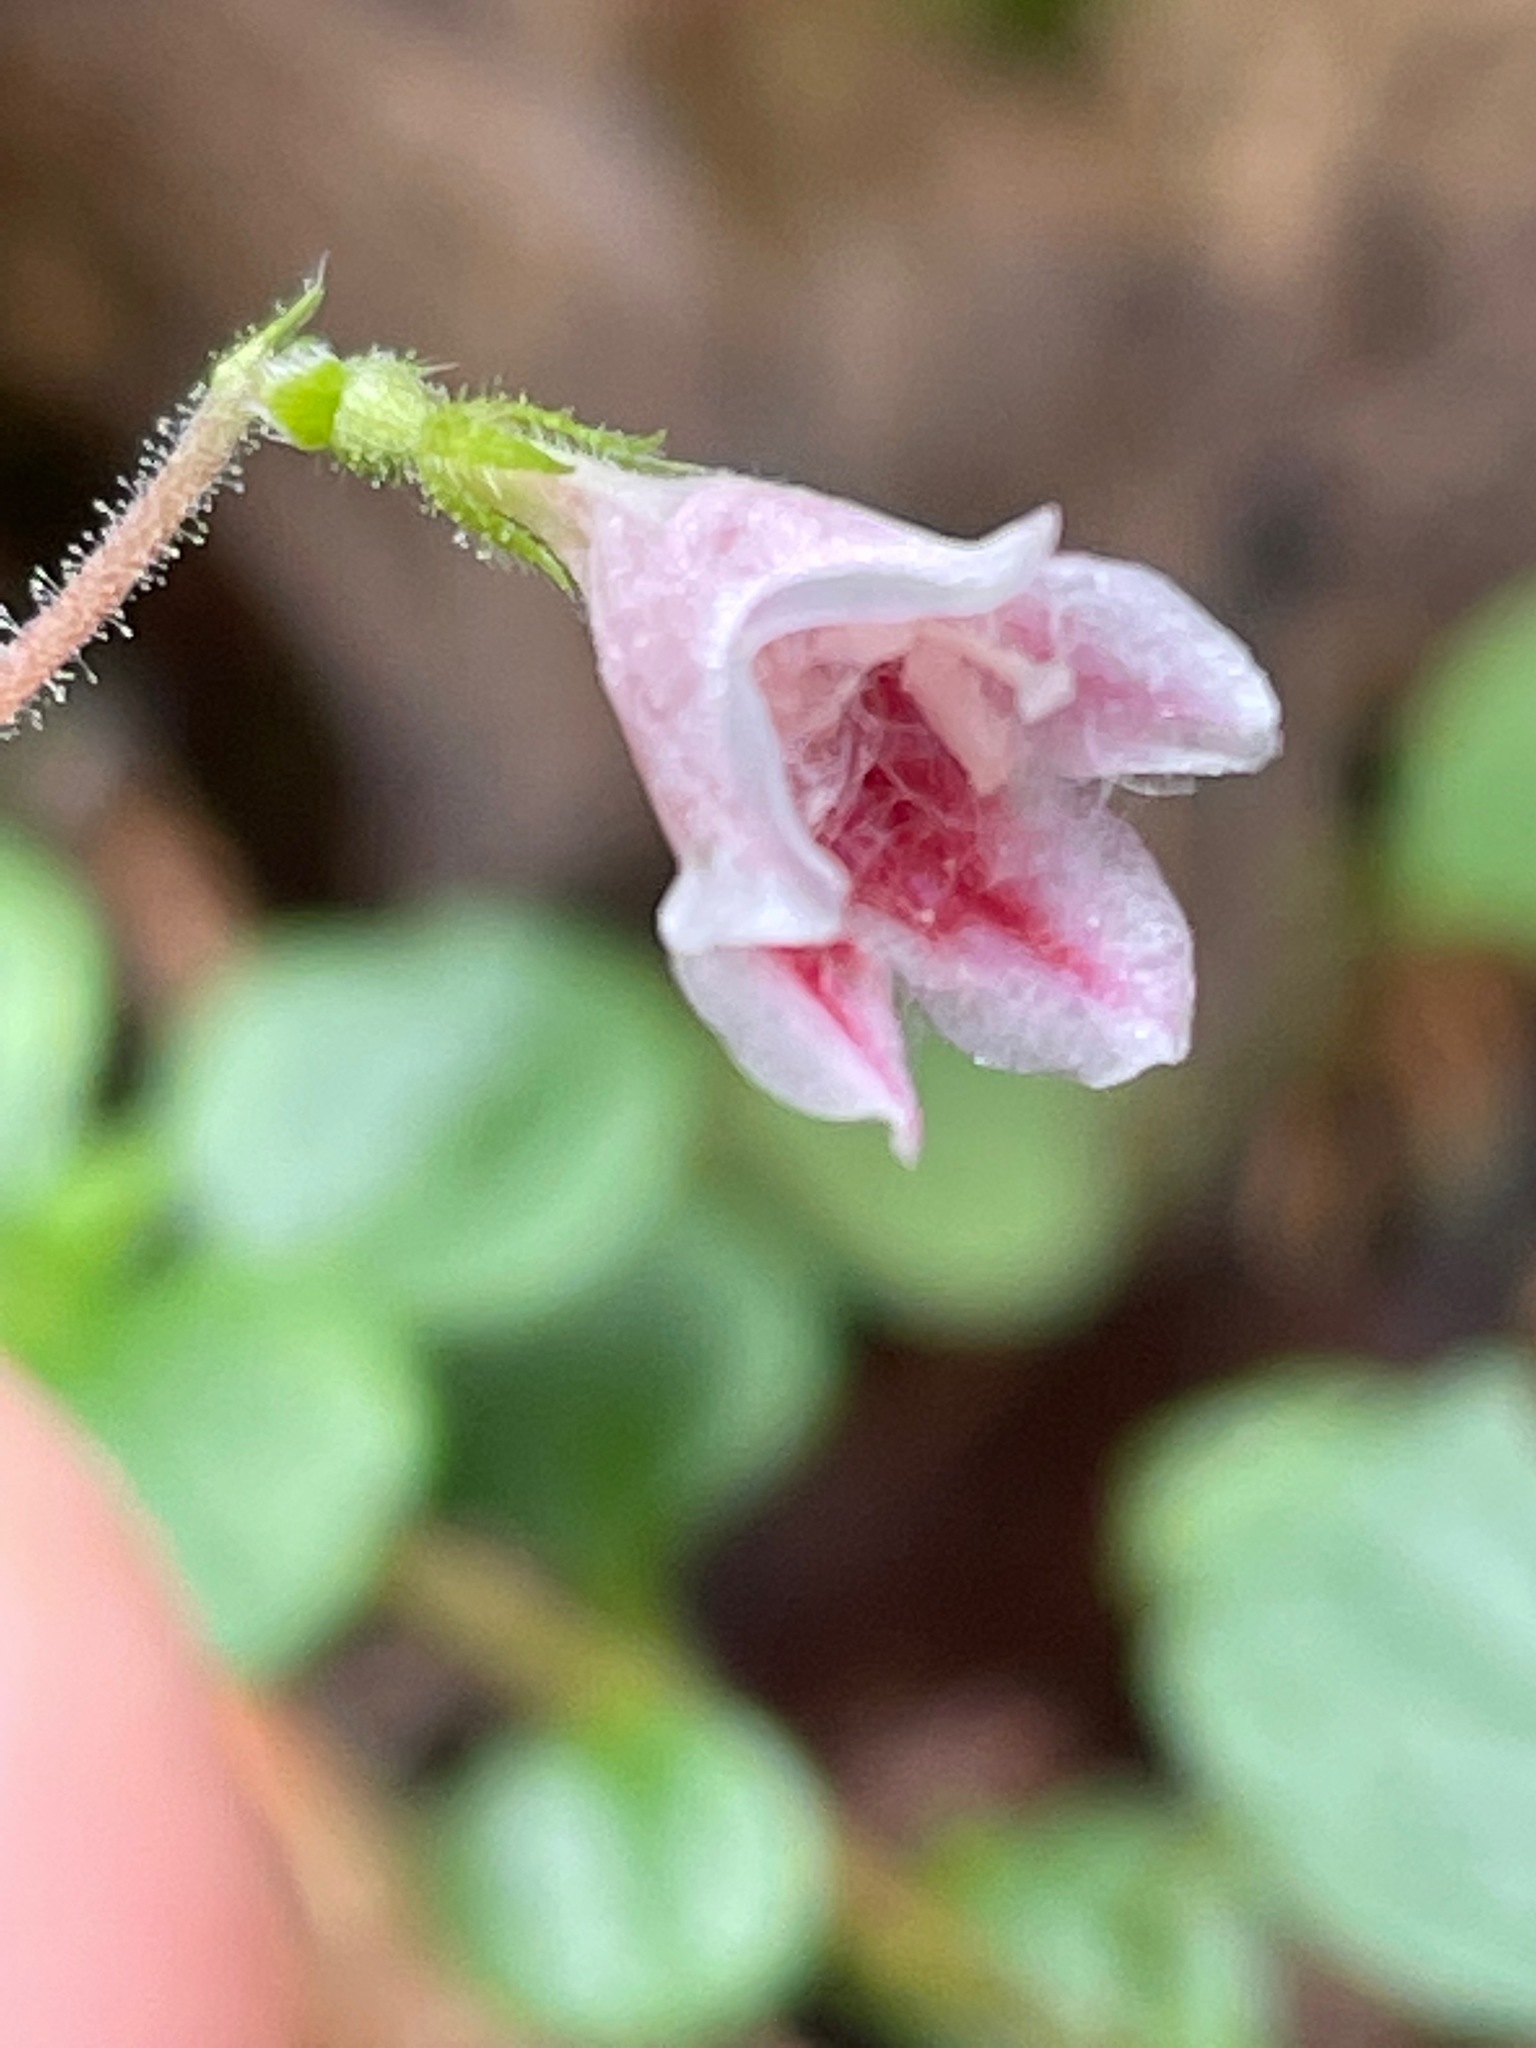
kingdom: Plantae
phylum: Tracheophyta
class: Magnoliopsida
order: Dipsacales
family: Caprifoliaceae
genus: Linnaea
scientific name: Linnaea borealis
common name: Twinflower
